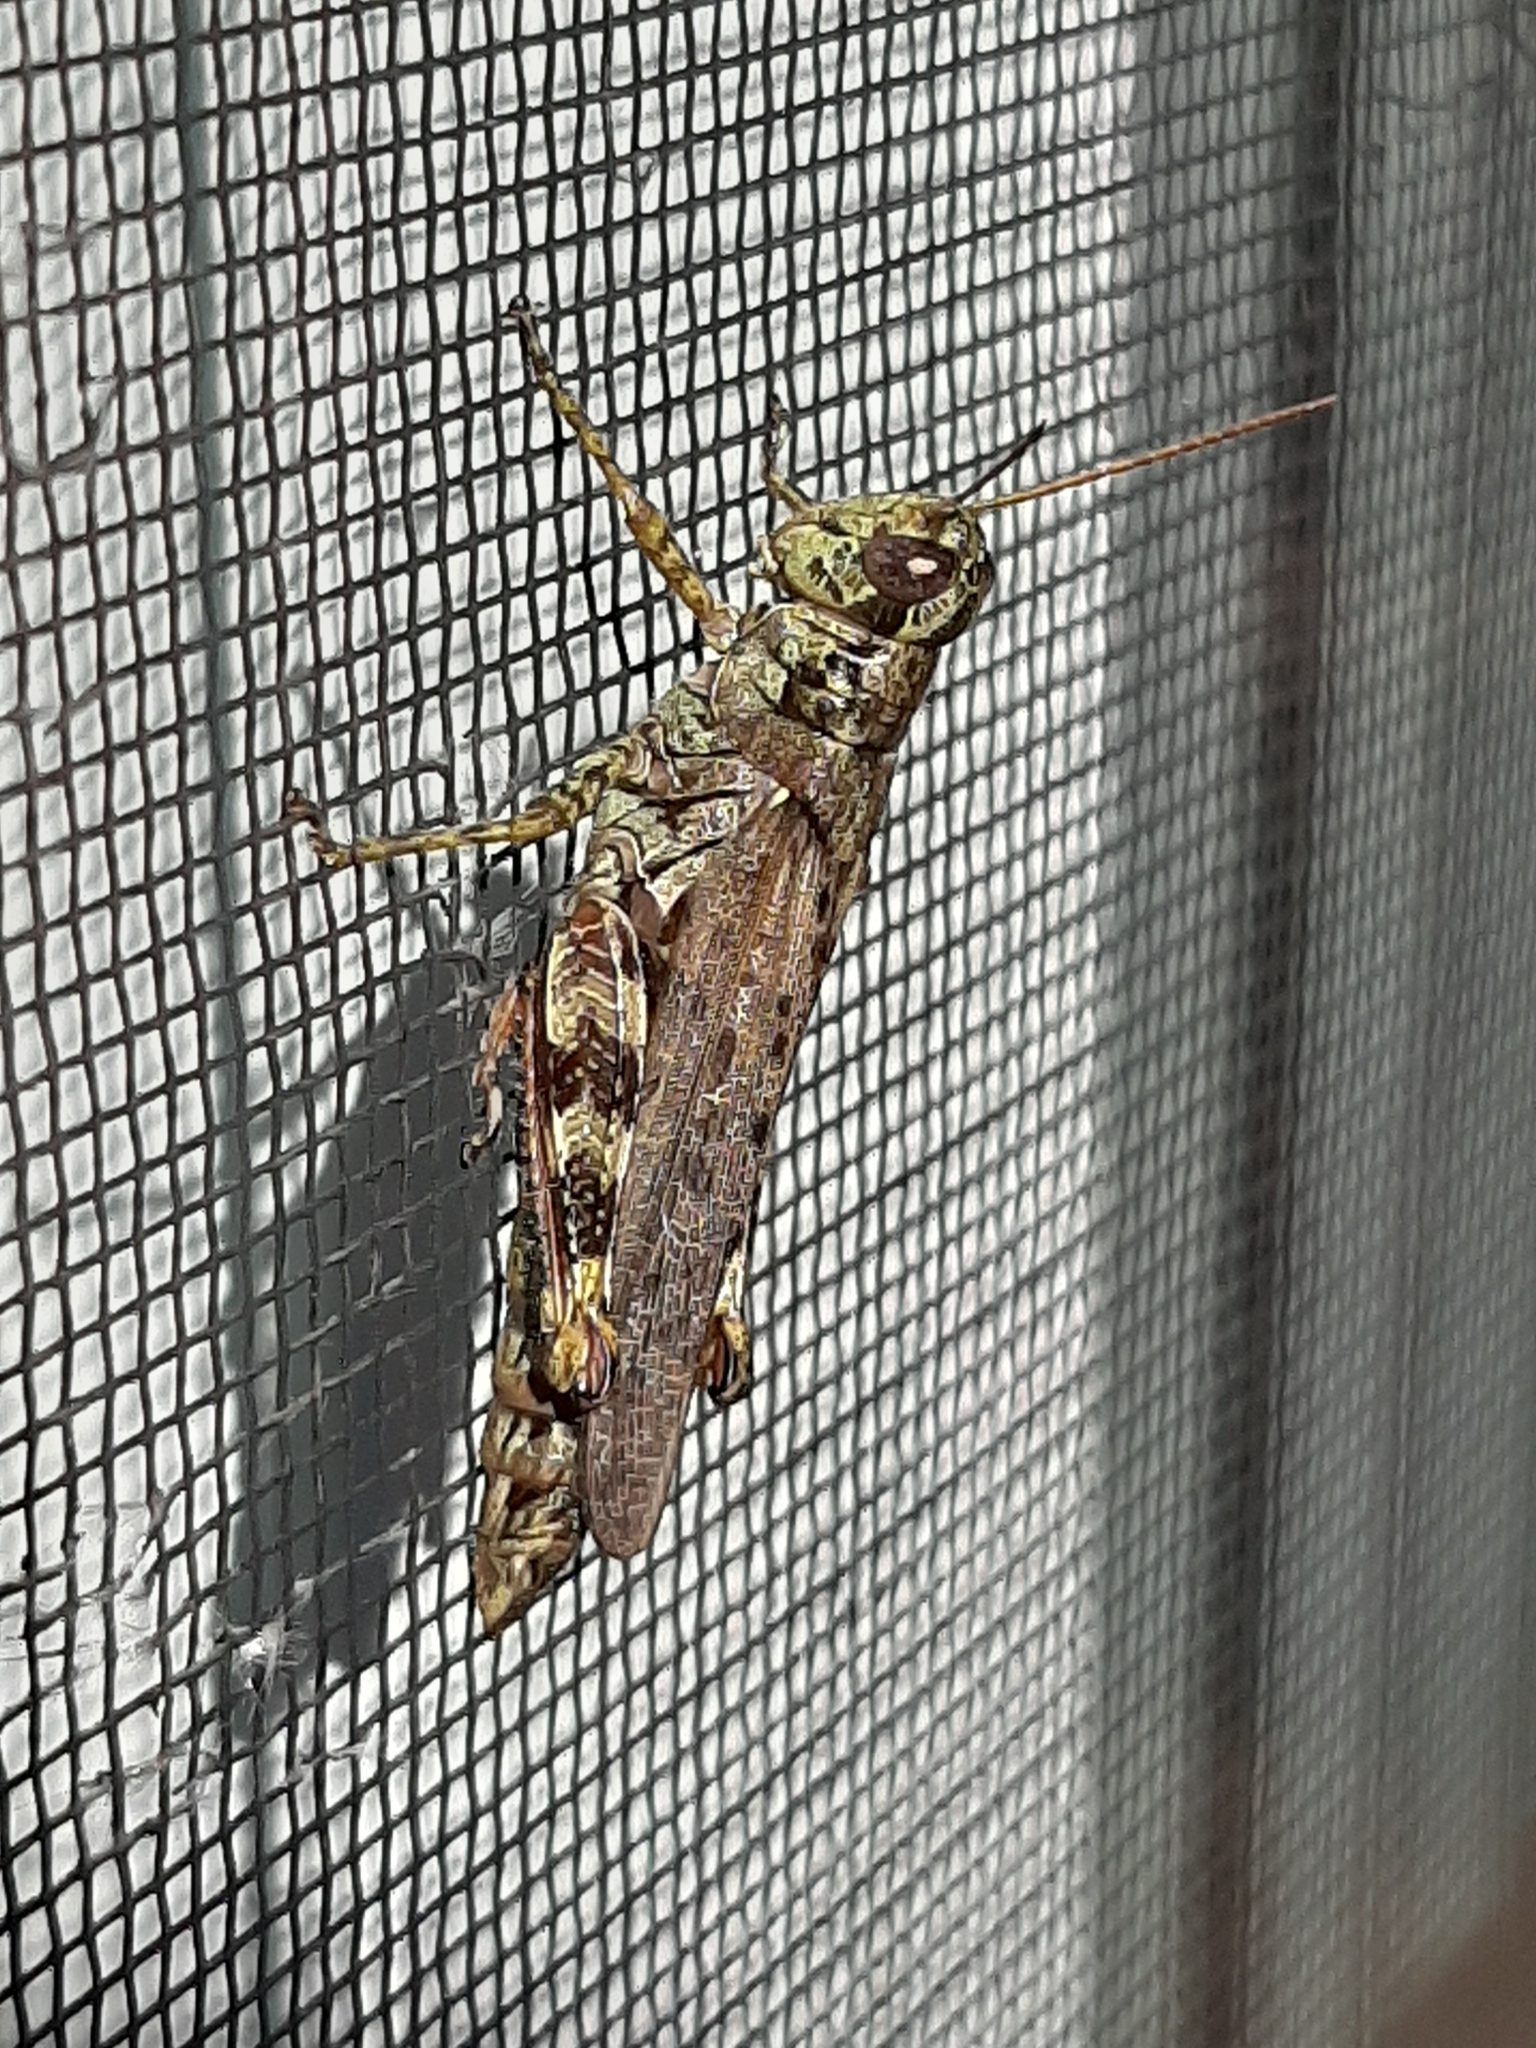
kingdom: Animalia
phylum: Arthropoda
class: Insecta
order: Orthoptera
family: Acrididae
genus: Melanoplus
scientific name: Melanoplus punctulatus
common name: Pine-tree spur-throat grasshopper
